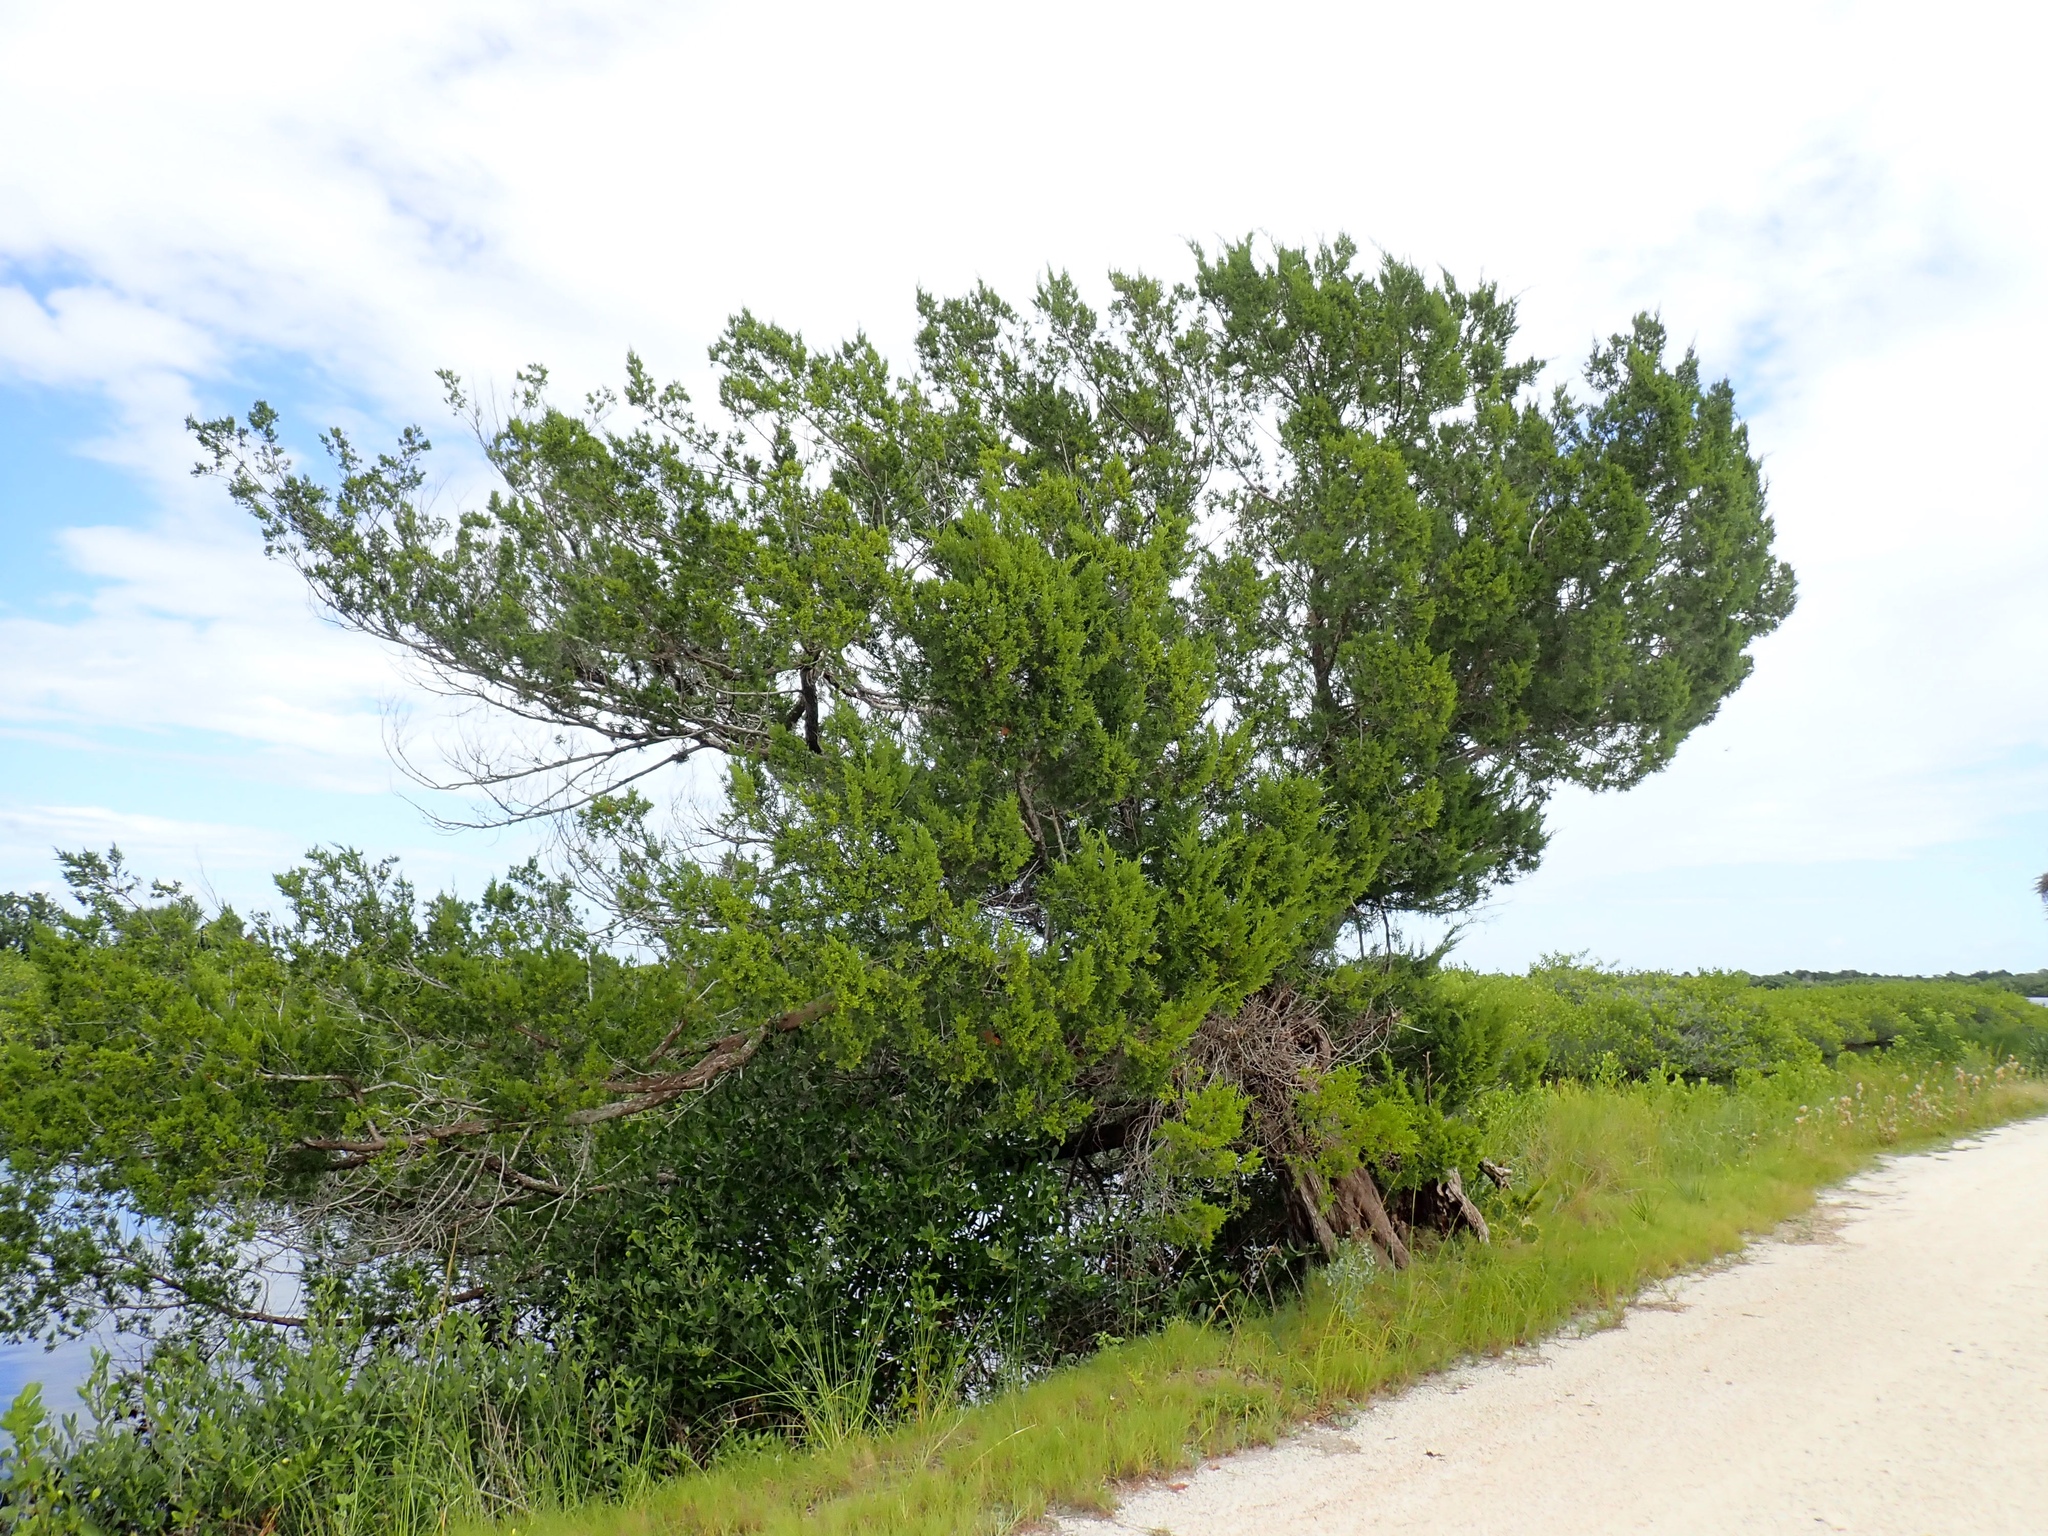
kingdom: Plantae
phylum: Tracheophyta
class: Pinopsida
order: Pinales
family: Cupressaceae
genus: Juniperus
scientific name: Juniperus virginiana
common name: Red juniper
